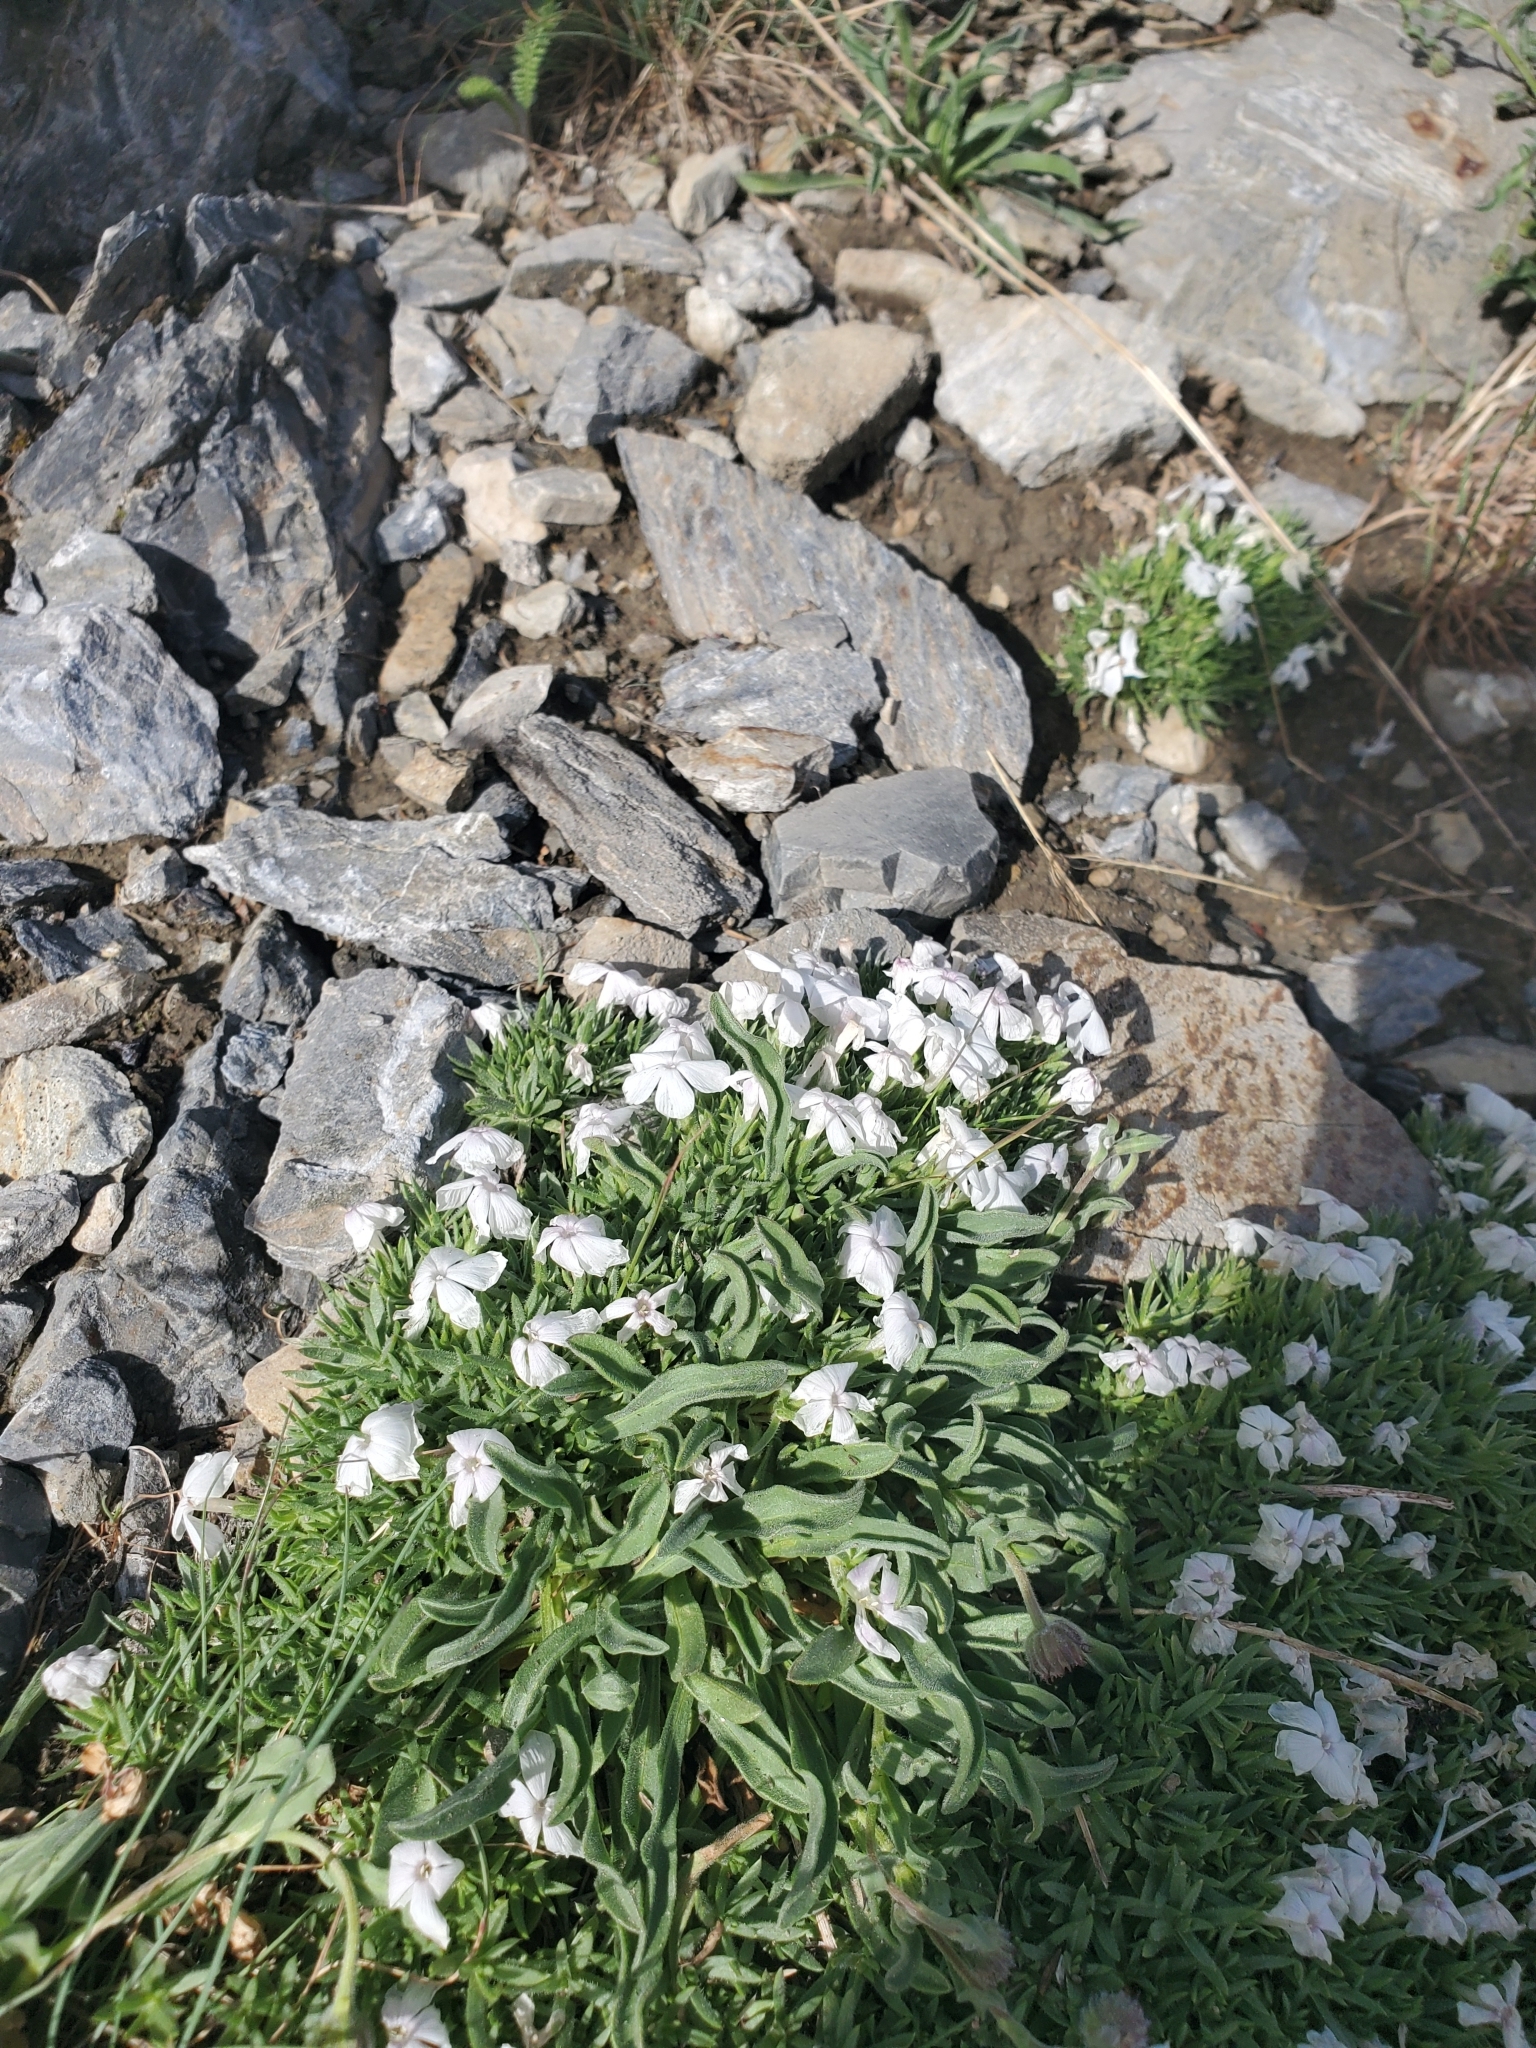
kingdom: Plantae
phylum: Tracheophyta
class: Magnoliopsida
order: Ericales
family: Polemoniaceae
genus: Phlox
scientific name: Phlox pulvinata
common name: Cushion phlox
